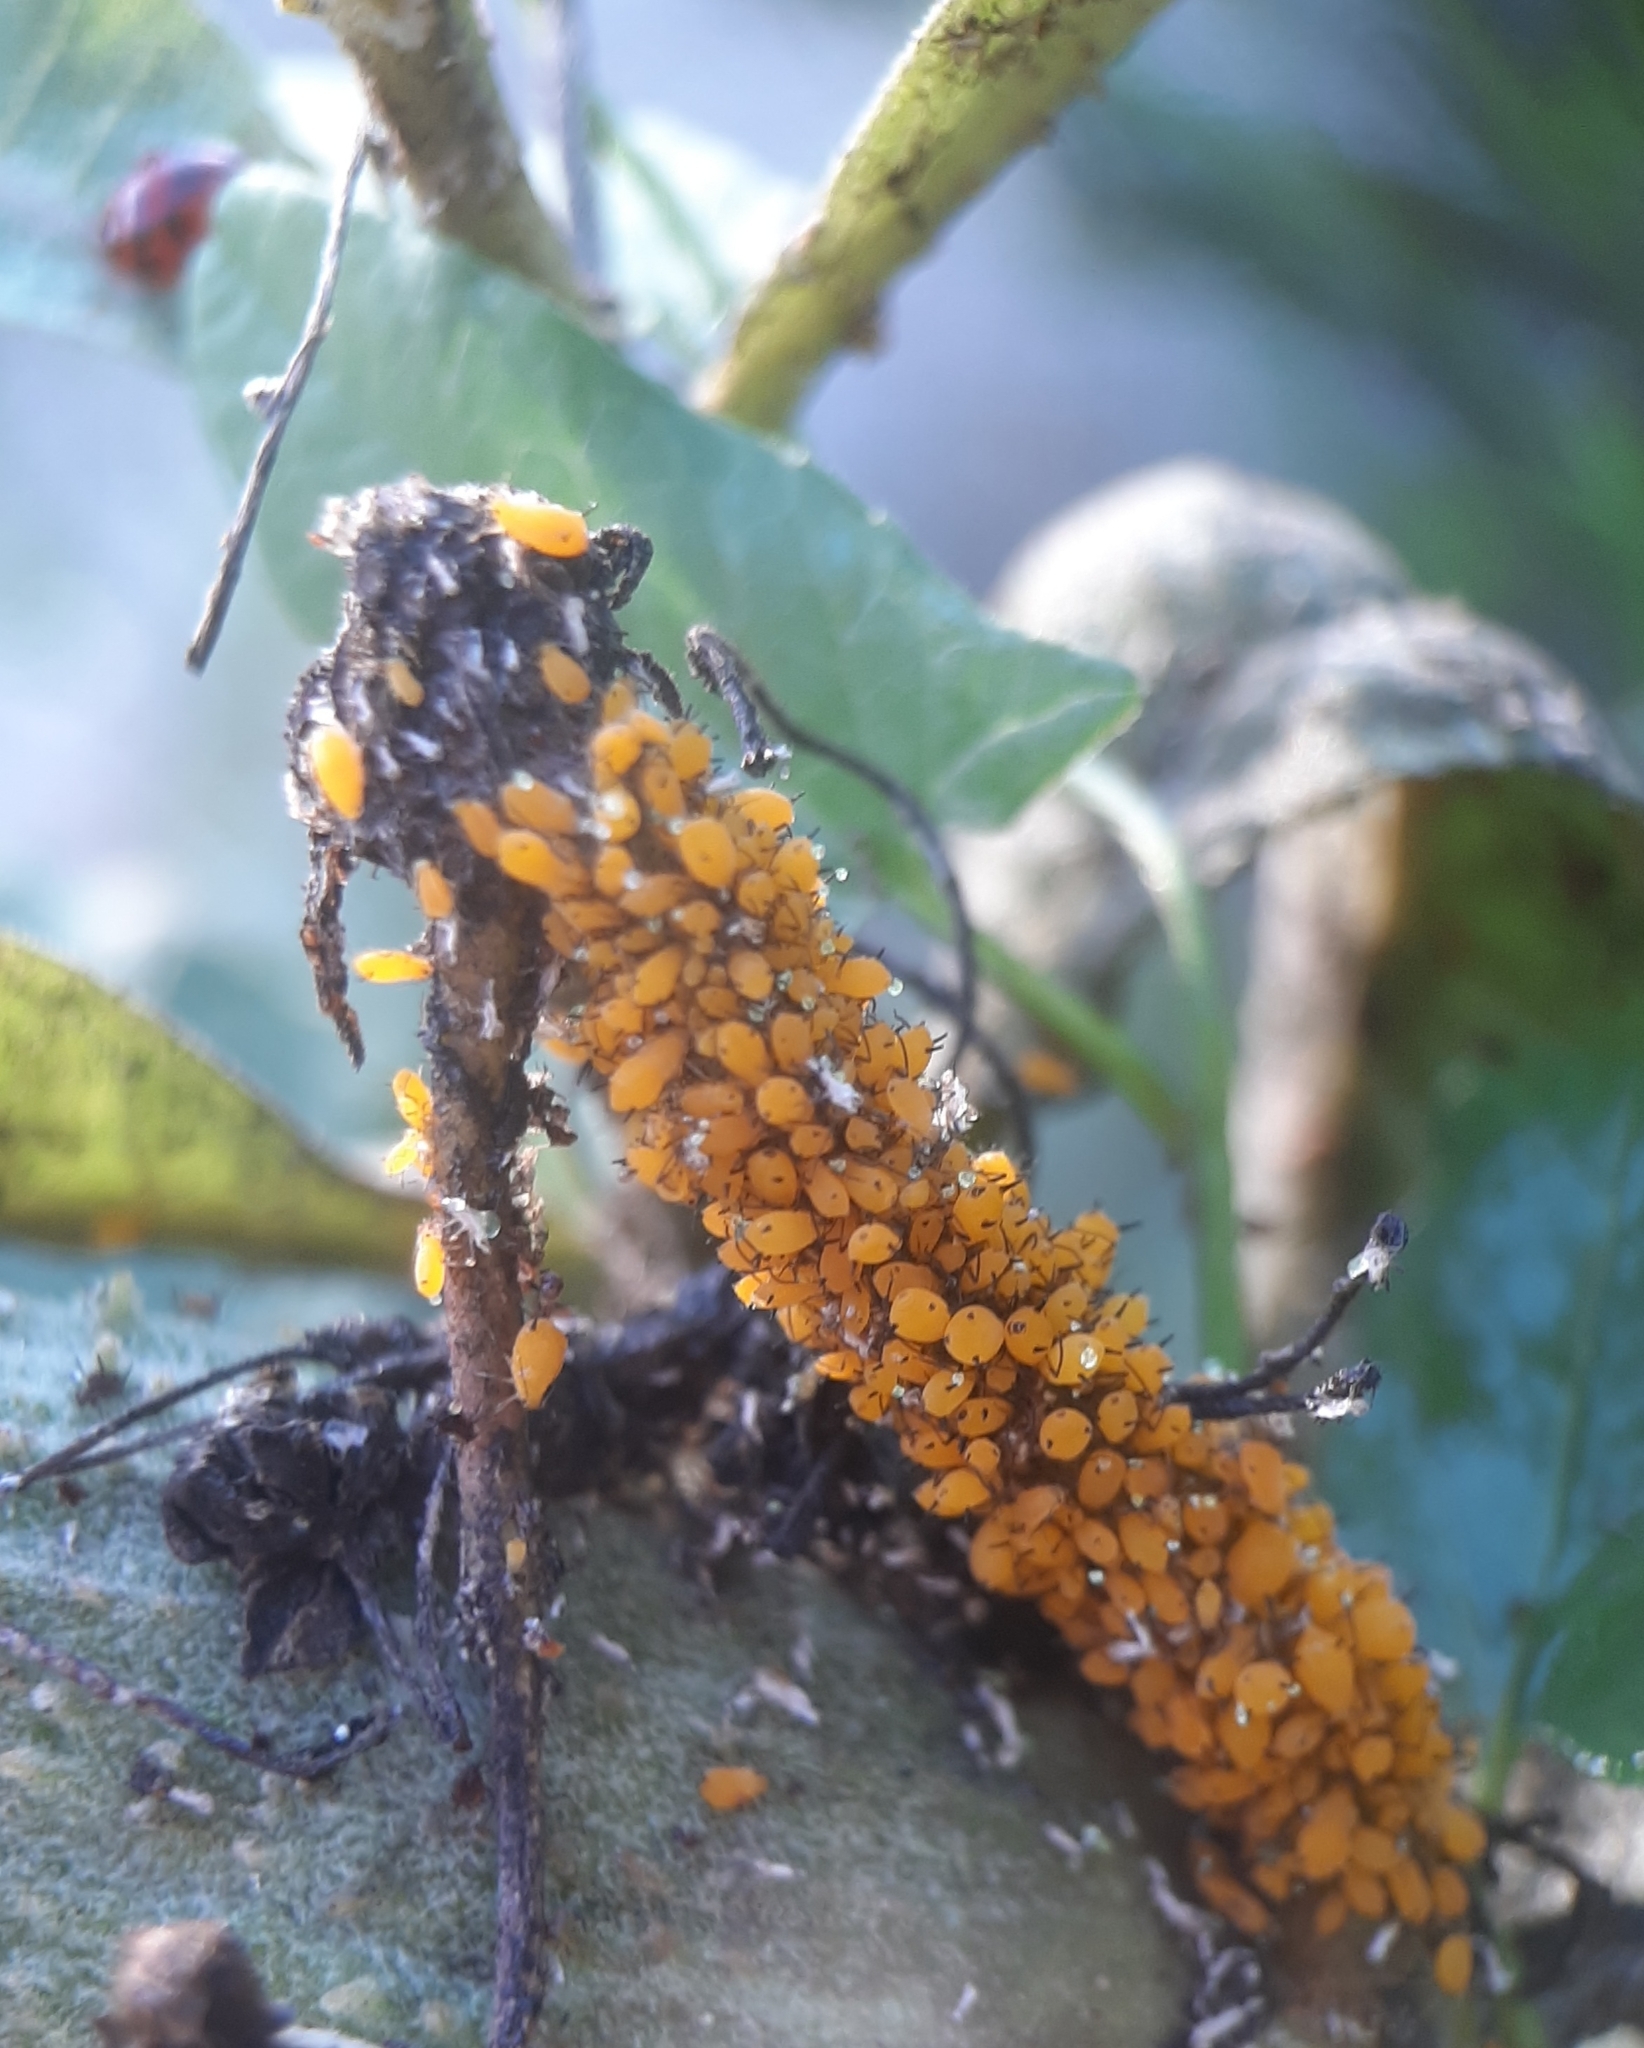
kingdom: Animalia
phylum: Arthropoda
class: Insecta
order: Hemiptera
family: Aphididae
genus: Aphis
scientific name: Aphis nerii
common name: Oleander aphid
